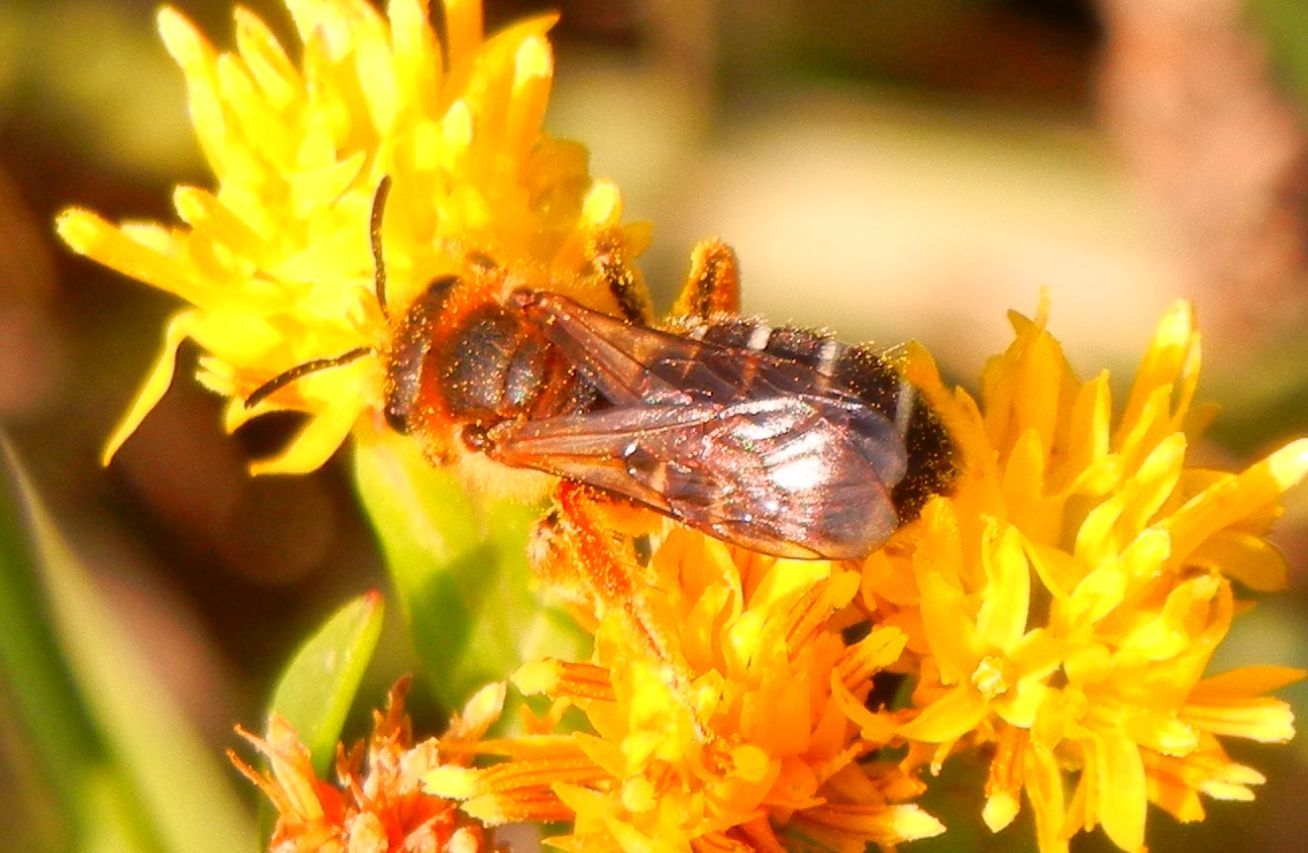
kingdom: Animalia
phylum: Arthropoda
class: Insecta
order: Hymenoptera
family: Halictidae
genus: Halictus
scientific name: Halictus rubicundus
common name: Orange-legged furrow bee
